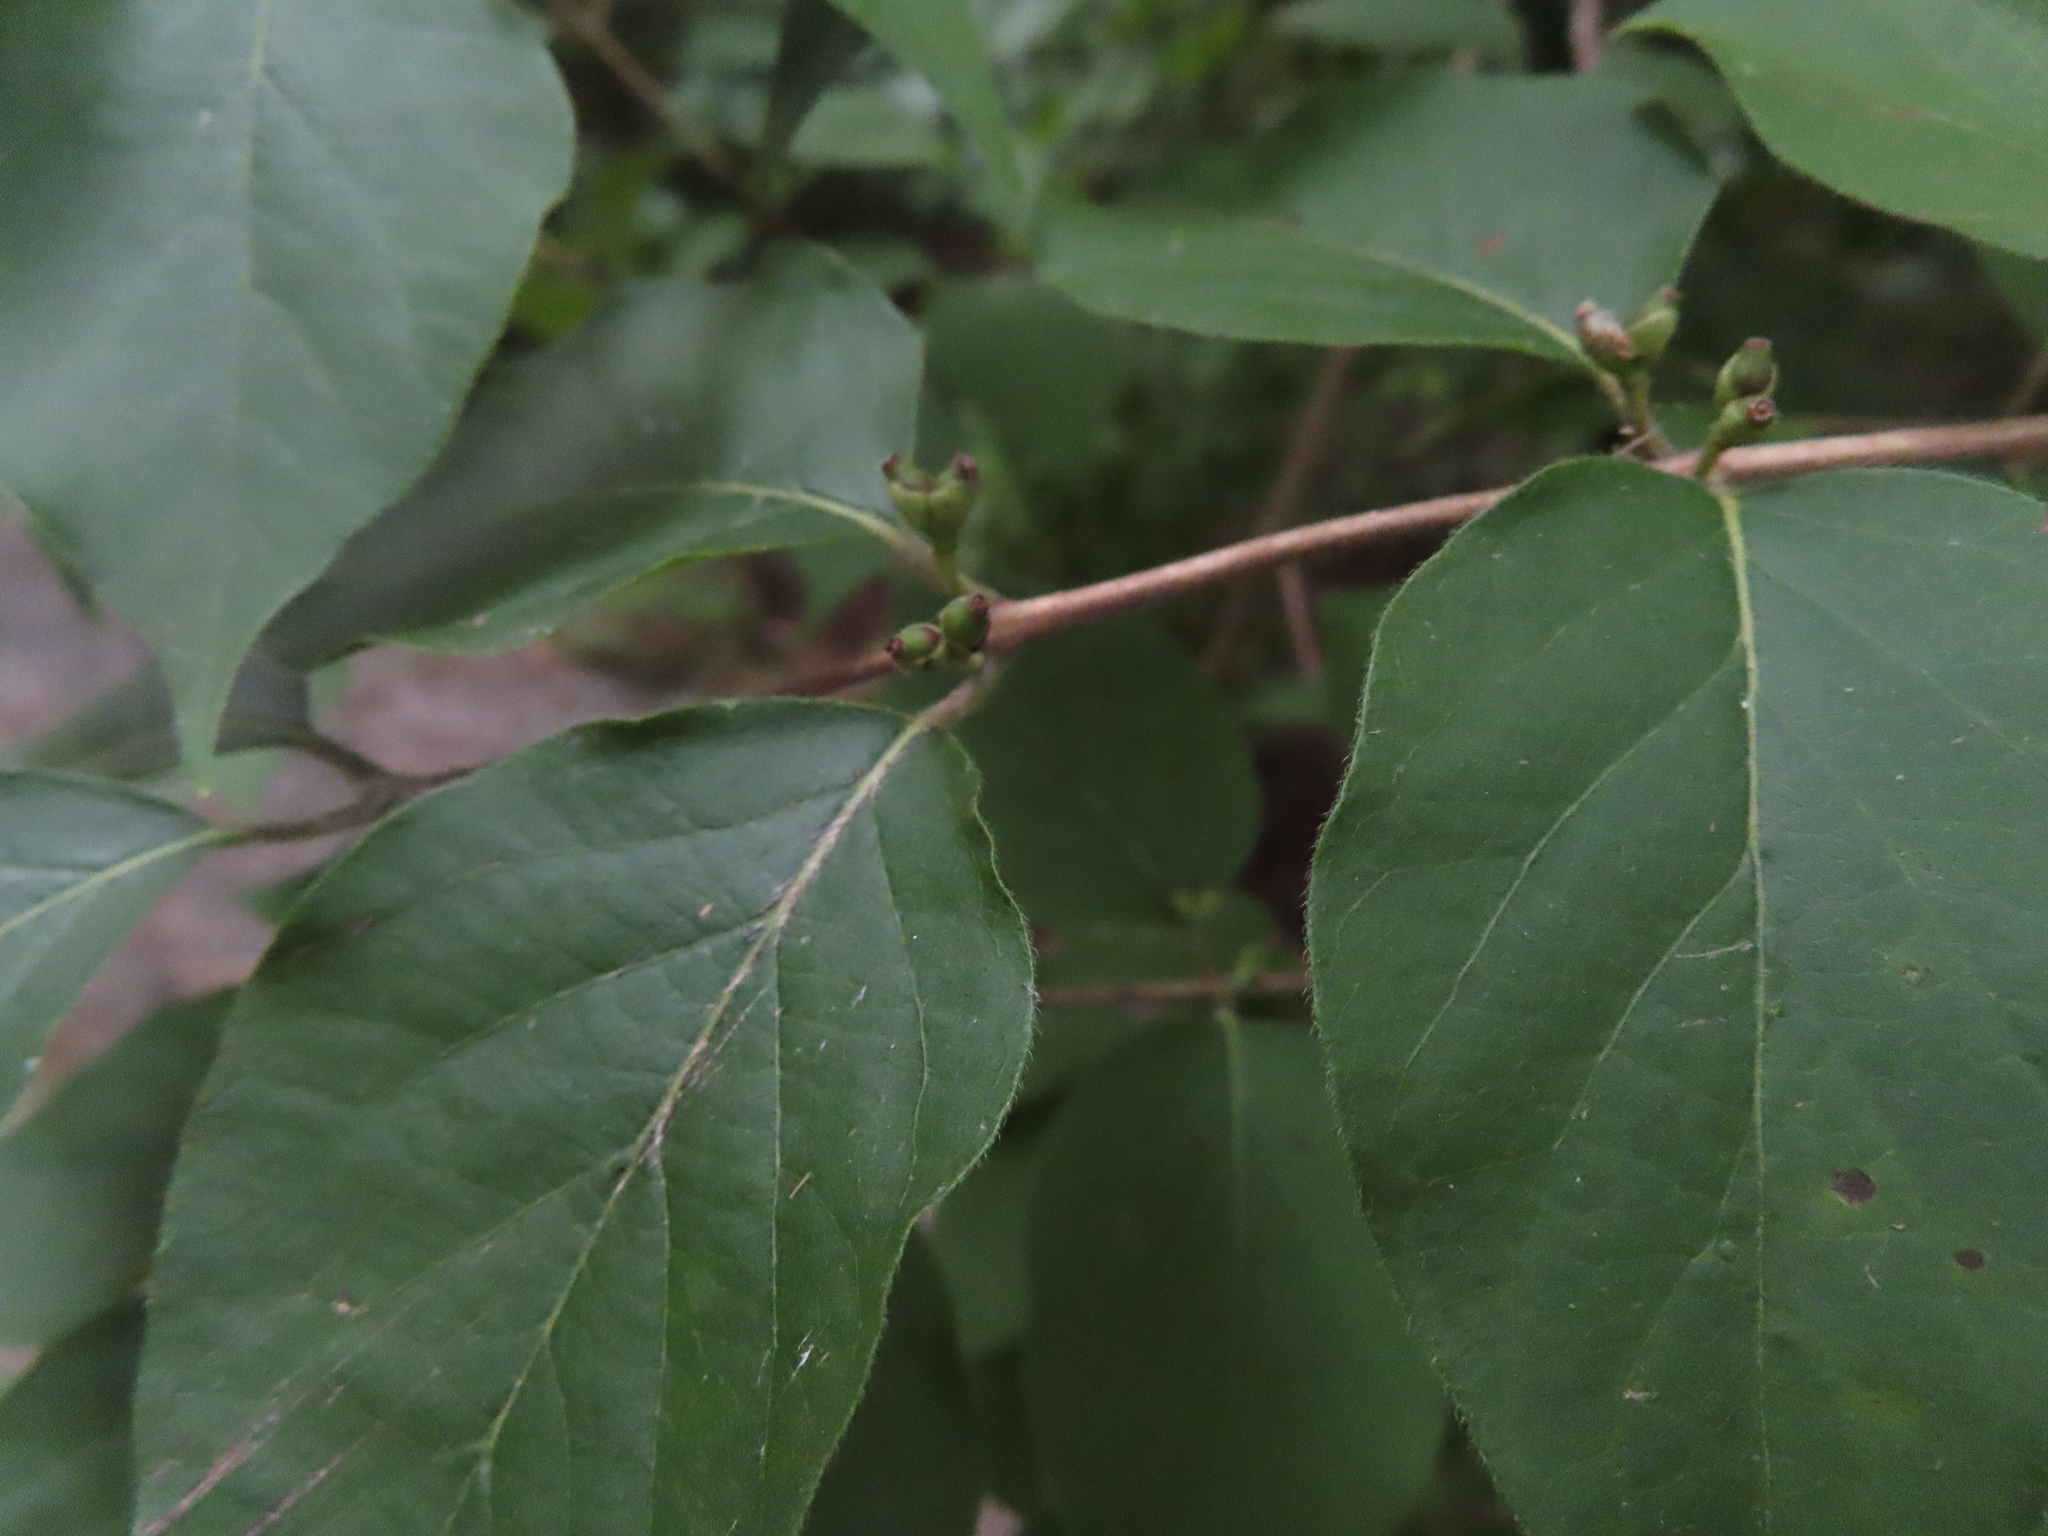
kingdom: Plantae
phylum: Tracheophyta
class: Magnoliopsida
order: Dipsacales
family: Caprifoliaceae
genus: Lonicera
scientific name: Lonicera maackii
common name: Amur honeysuckle
